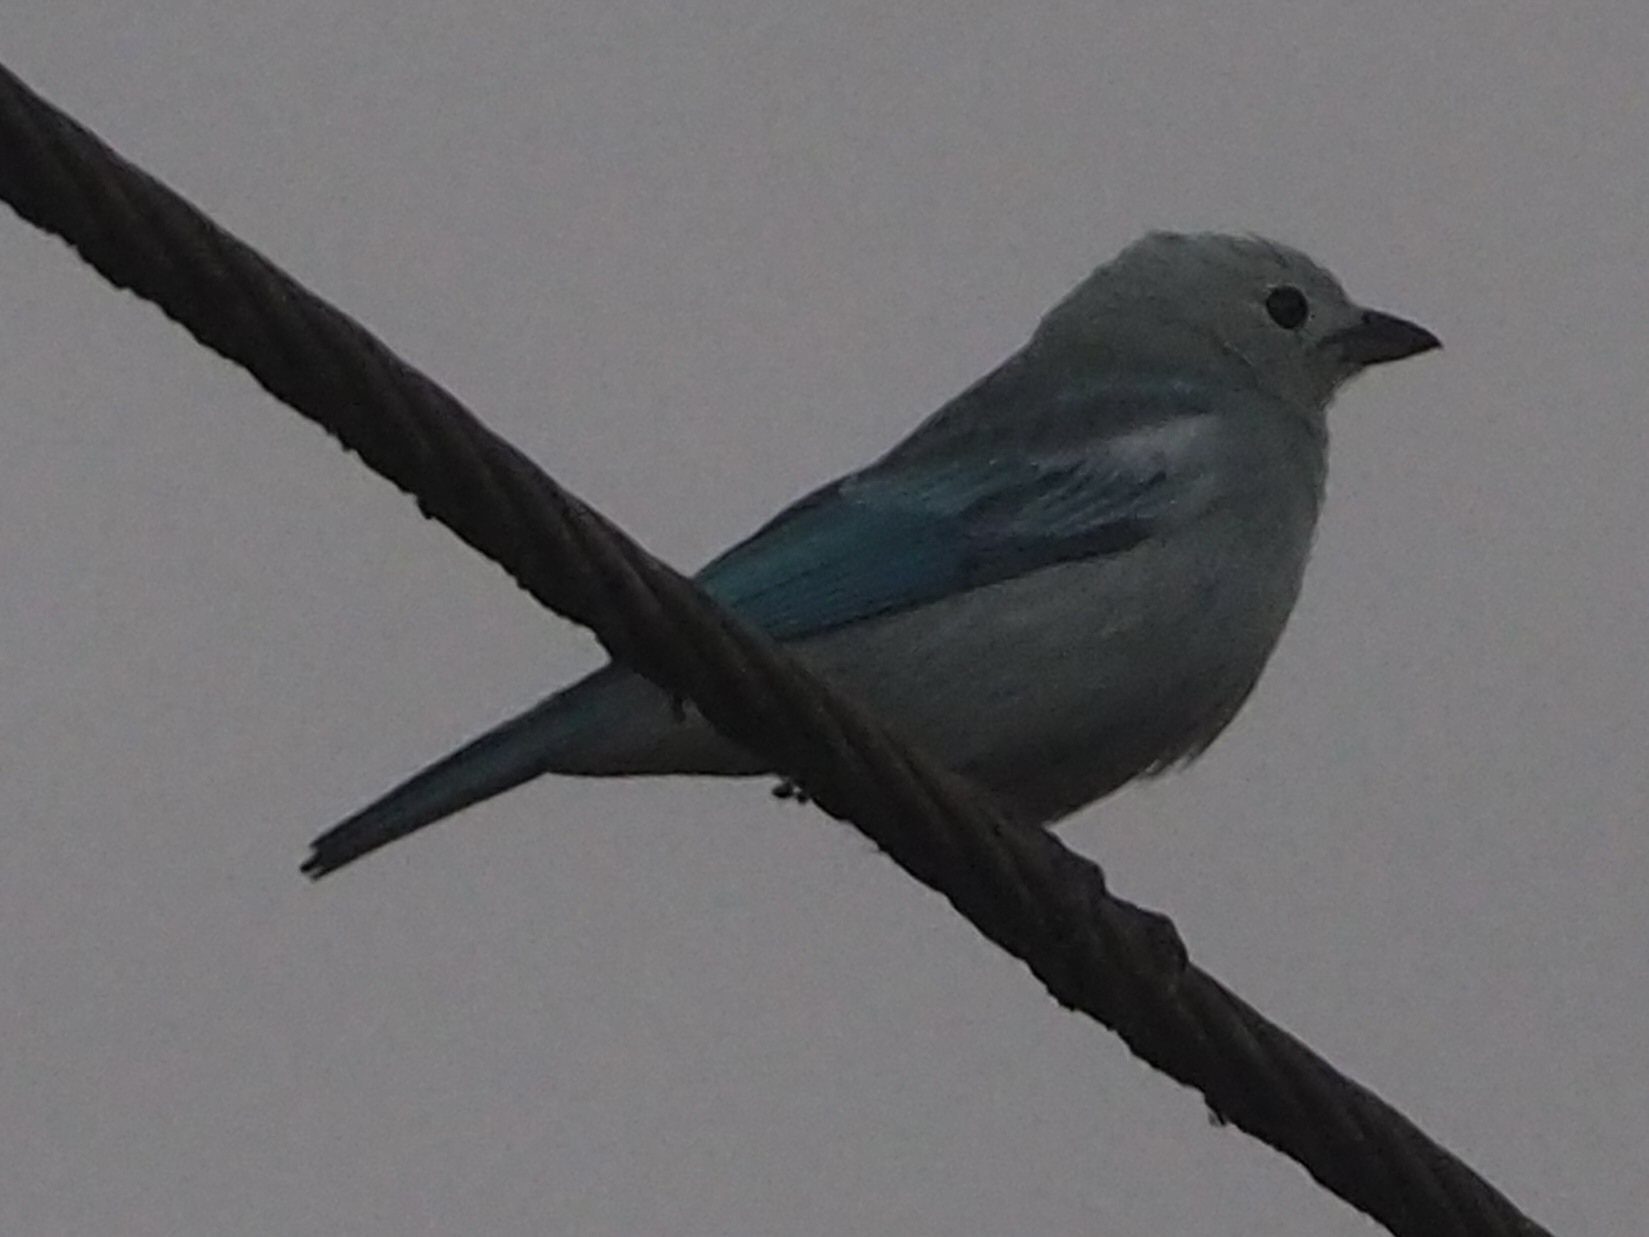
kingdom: Animalia
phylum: Chordata
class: Aves
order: Passeriformes
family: Thraupidae
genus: Thraupis
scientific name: Thraupis episcopus
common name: Blue-grey tanager
